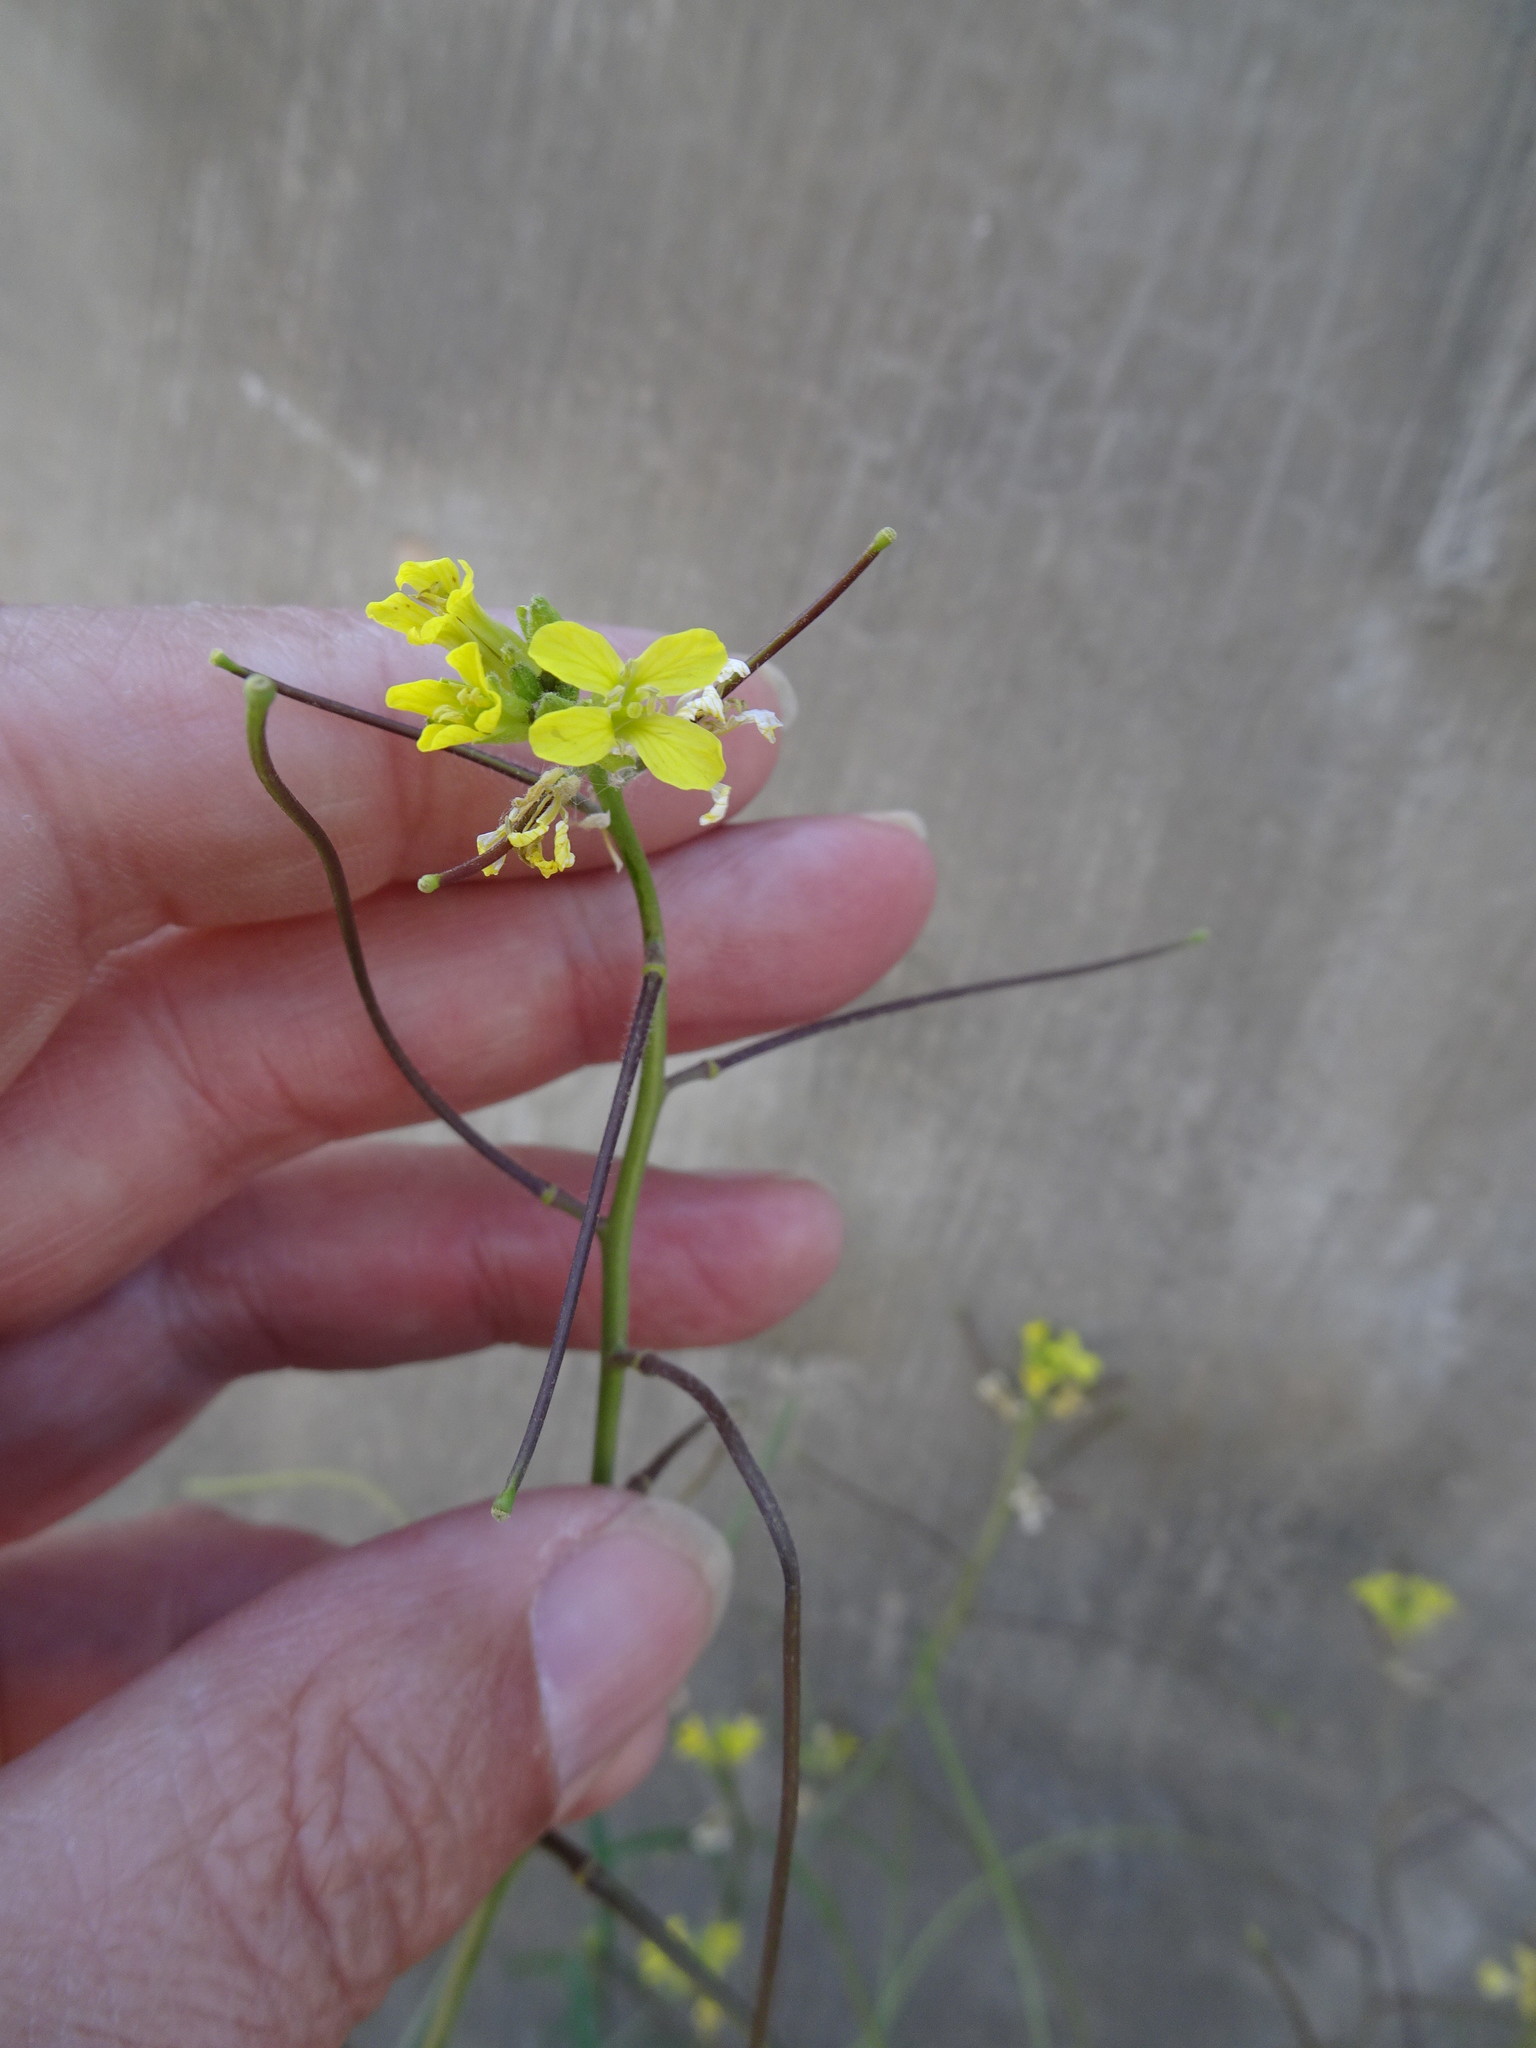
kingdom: Plantae
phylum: Tracheophyta
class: Magnoliopsida
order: Brassicales
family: Brassicaceae
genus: Sisymbrium
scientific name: Sisymbrium orientale
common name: Eastern rocket
